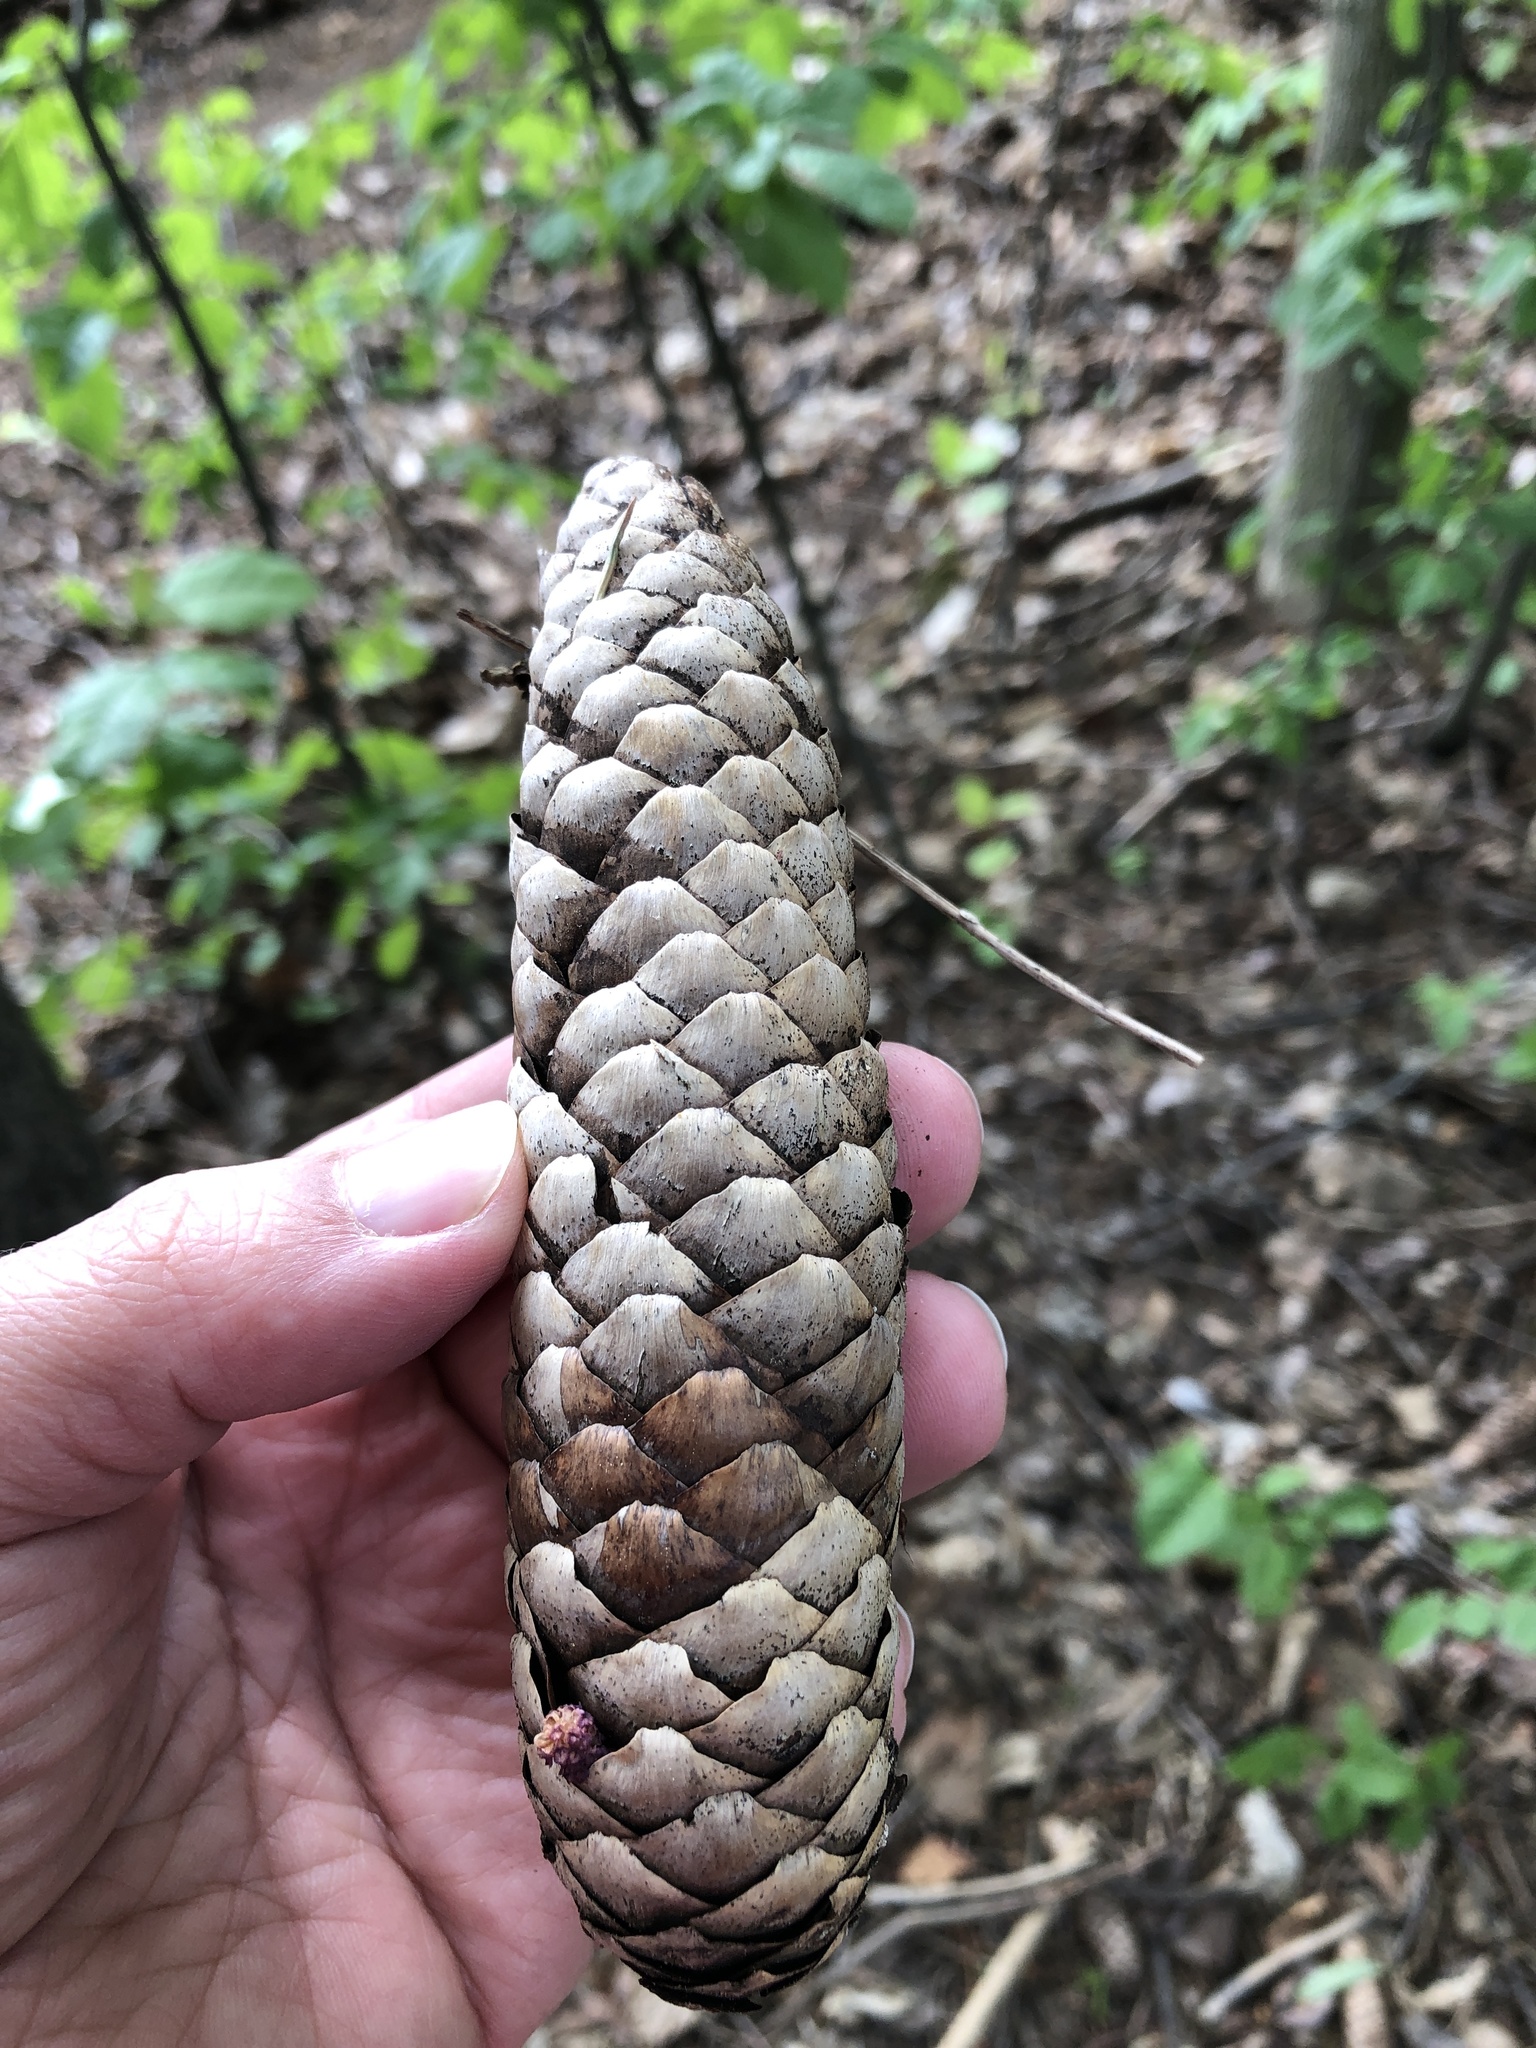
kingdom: Plantae
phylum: Tracheophyta
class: Pinopsida
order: Pinales
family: Pinaceae
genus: Picea
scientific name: Picea abies
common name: Norway spruce
